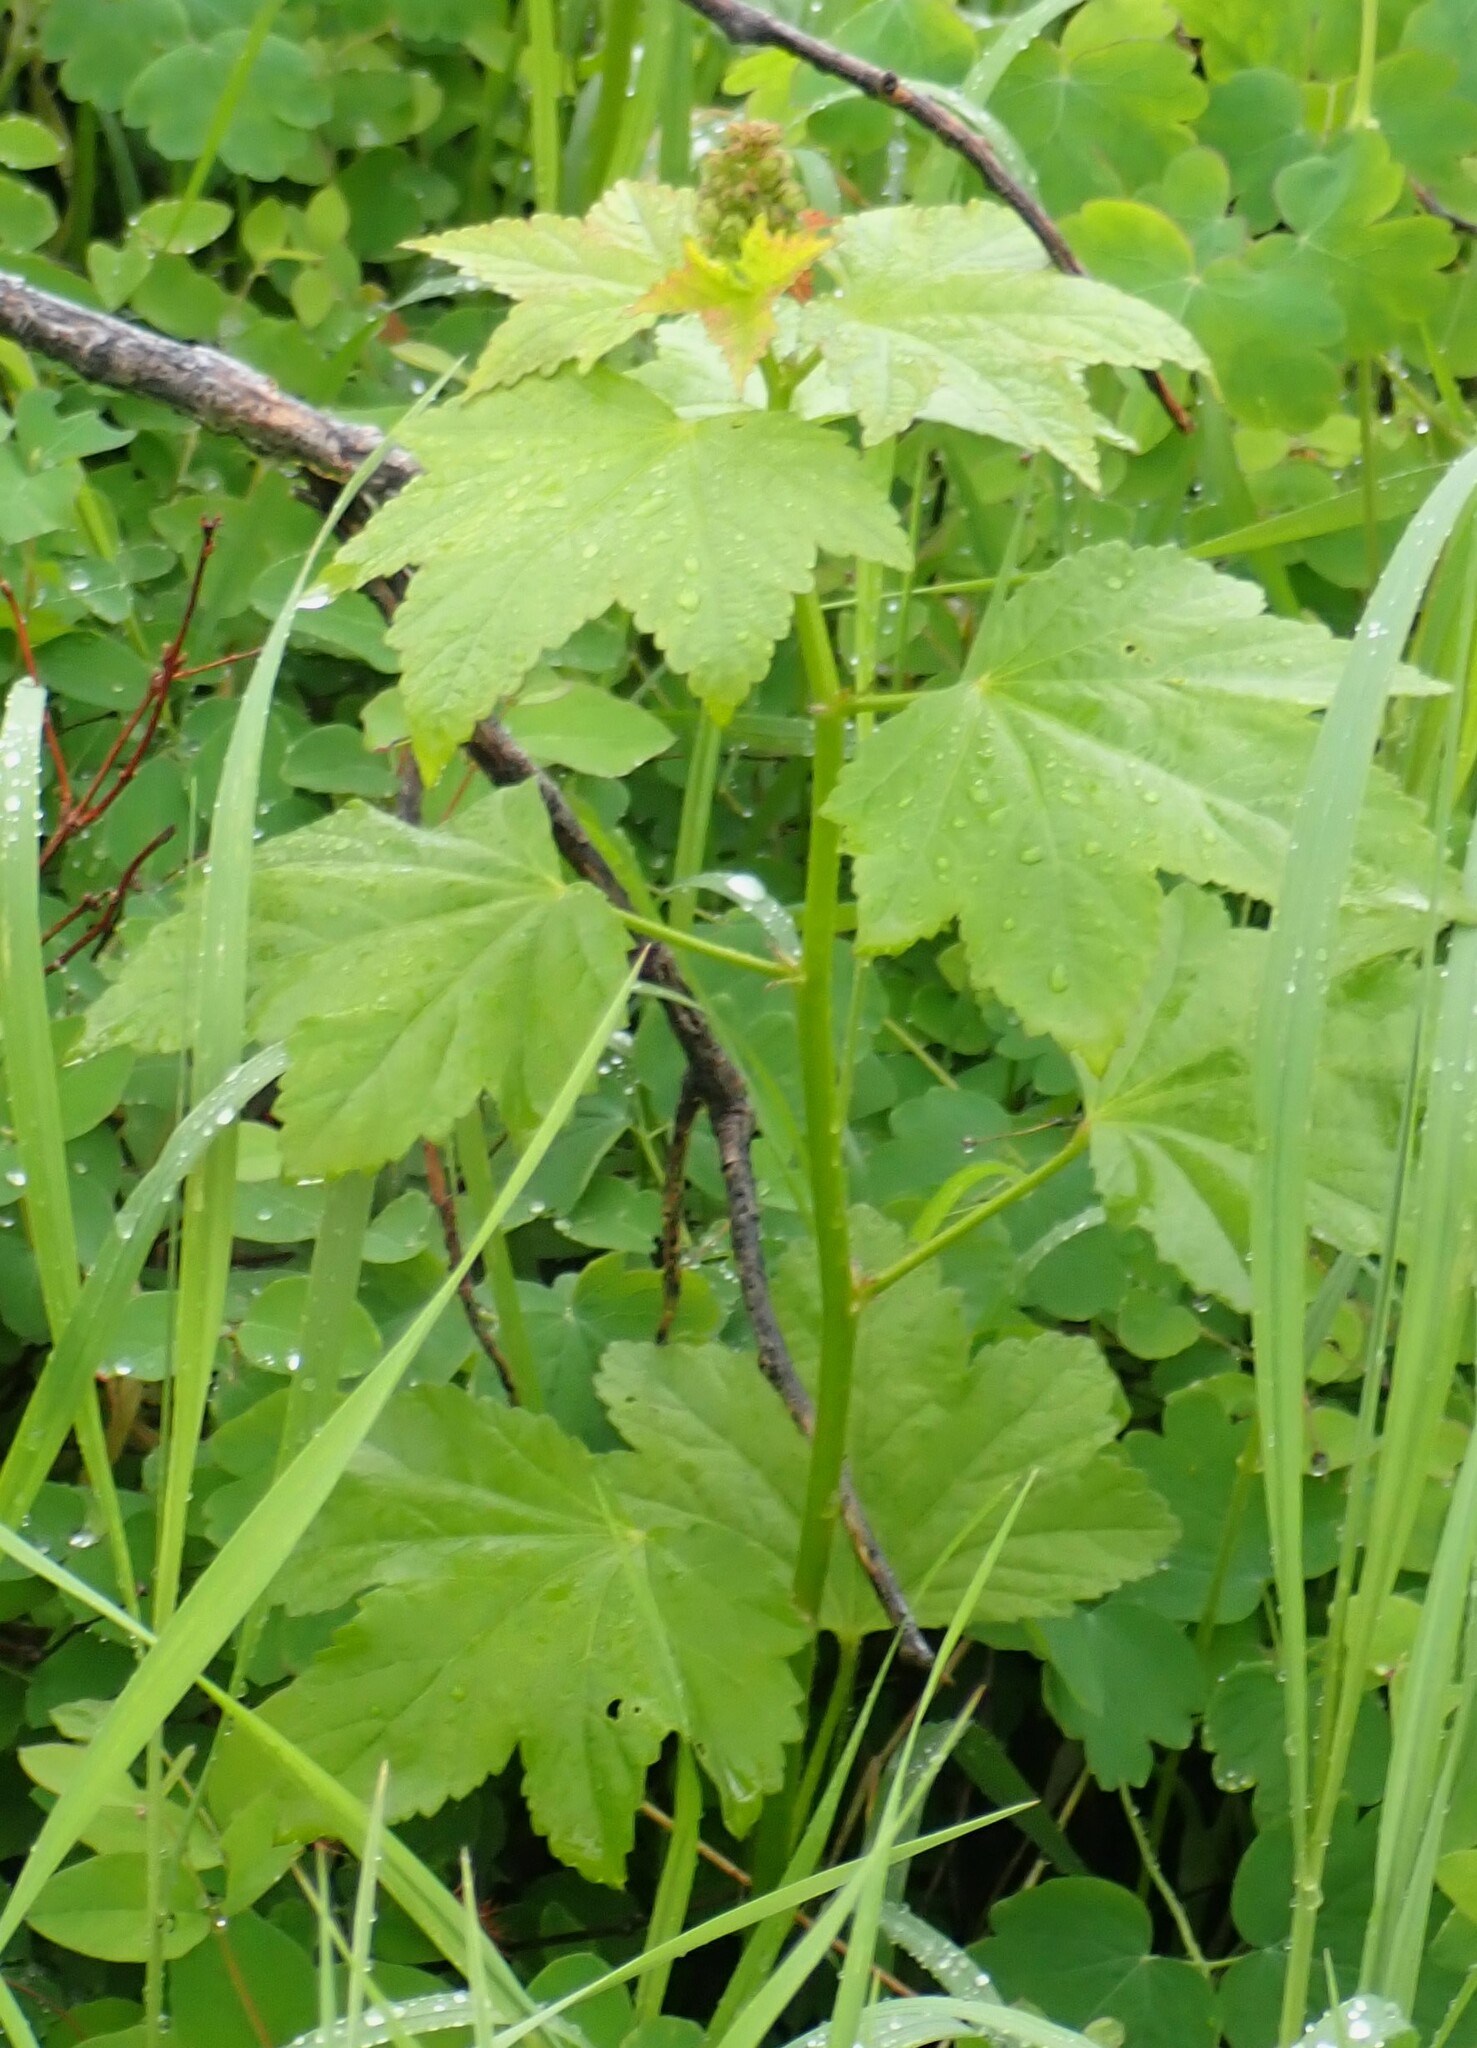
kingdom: Plantae
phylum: Tracheophyta
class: Magnoliopsida
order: Malvales
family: Malvaceae
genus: Iliamna
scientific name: Iliamna rivularis
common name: Wild hollyhock
